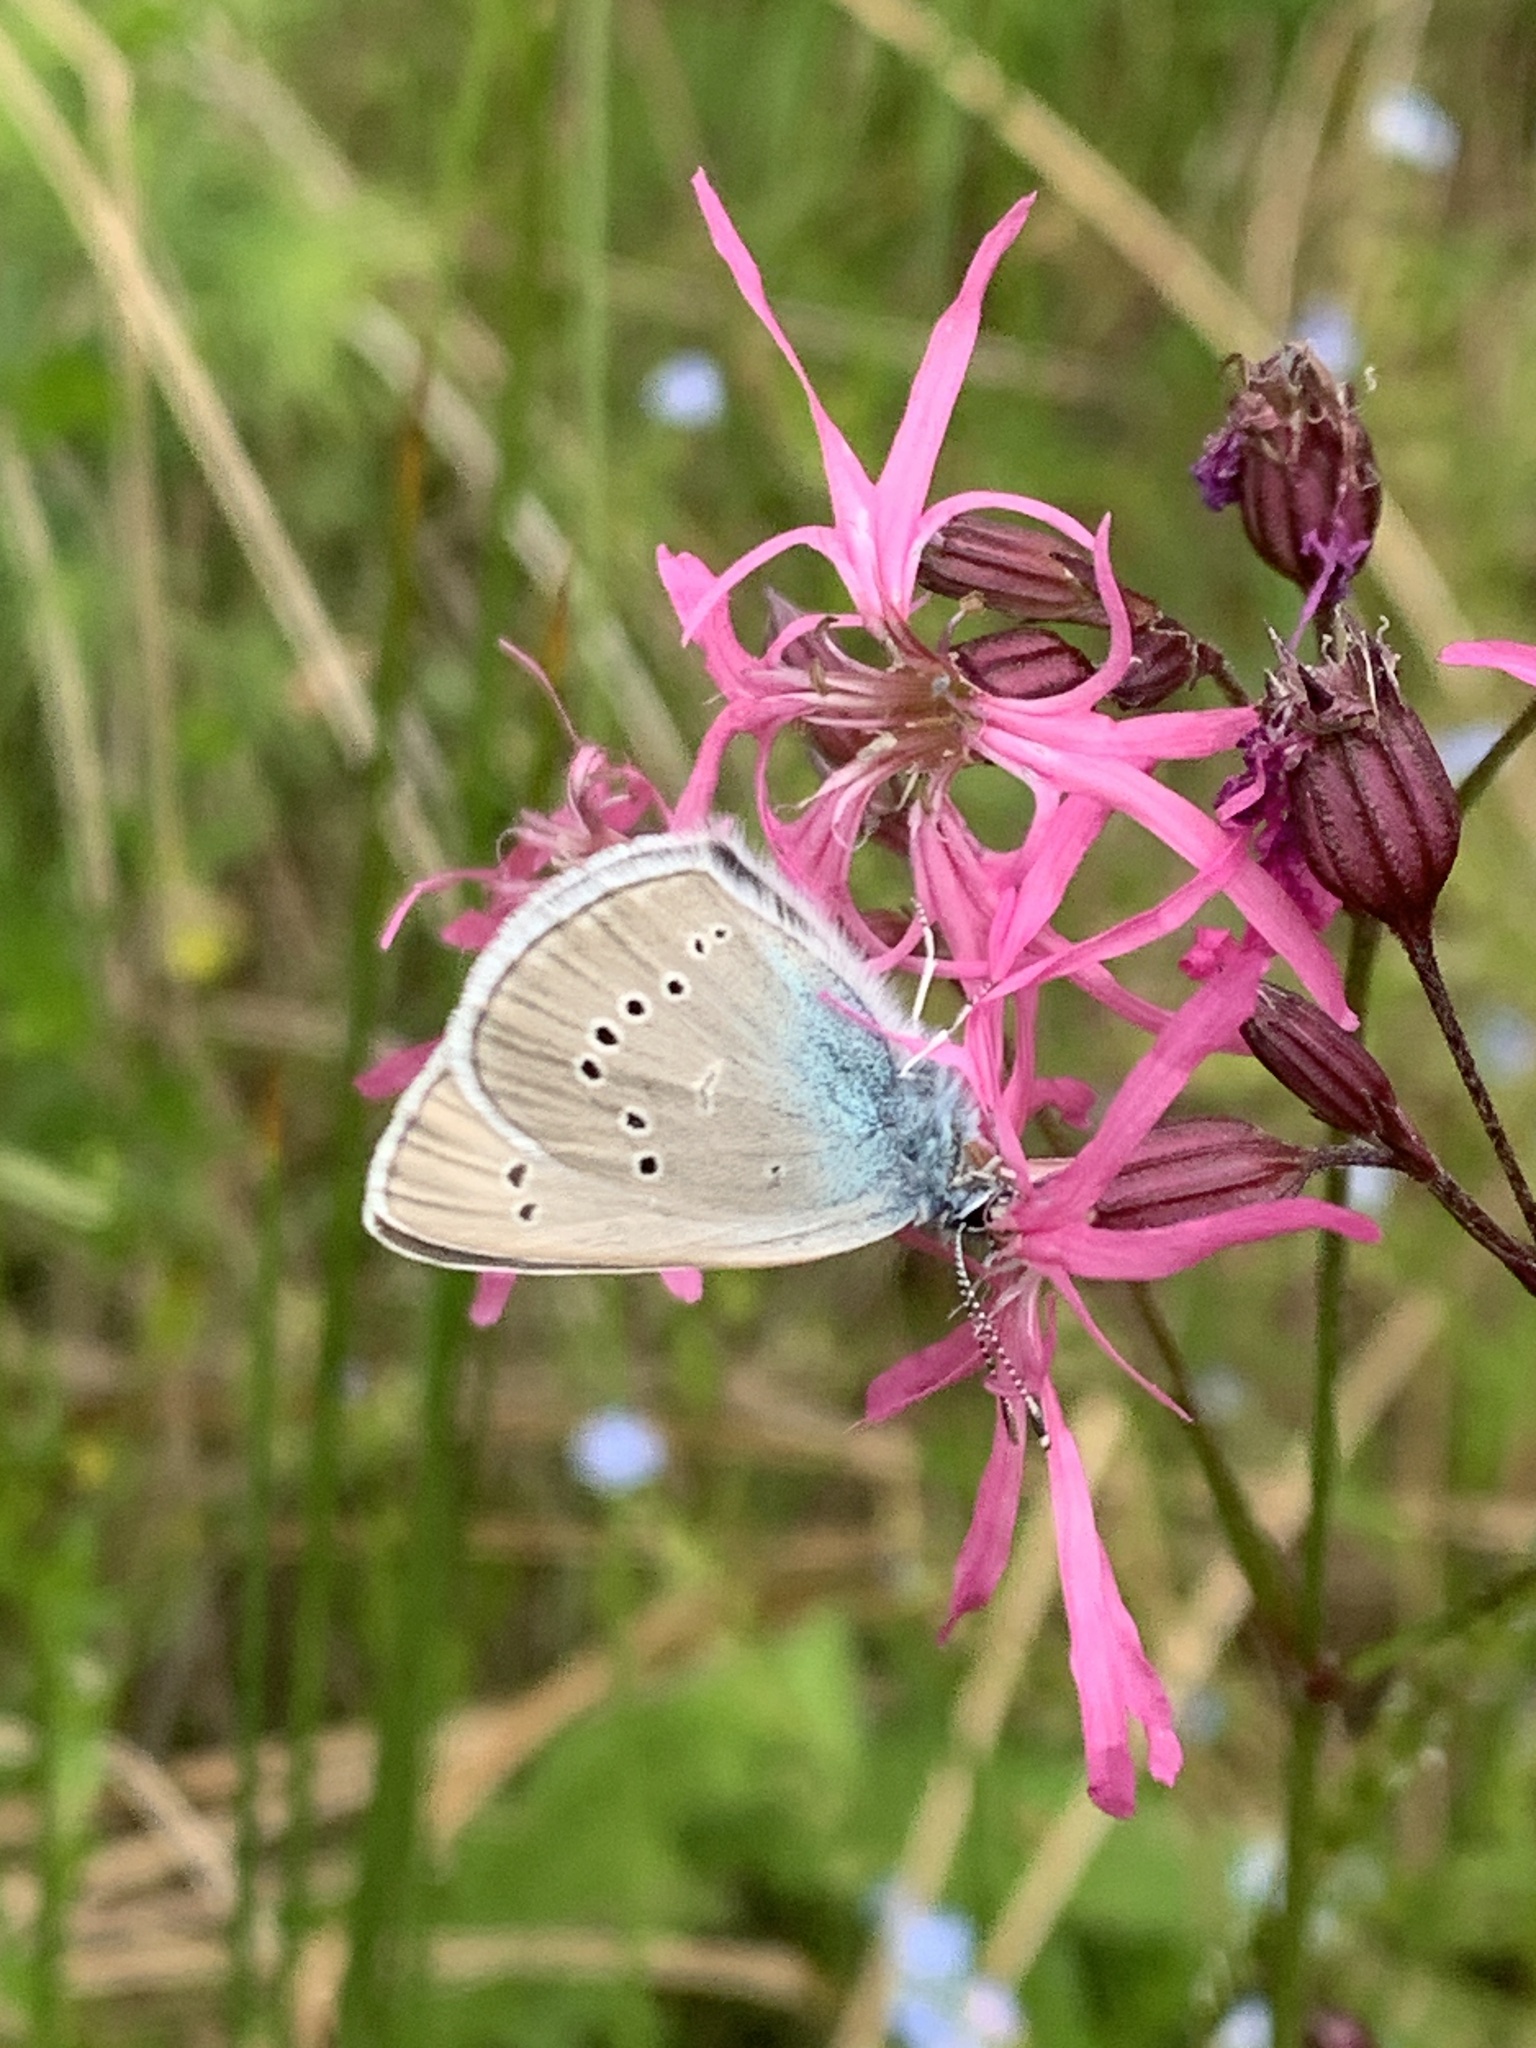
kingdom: Animalia
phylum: Arthropoda
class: Insecta
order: Lepidoptera
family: Lycaenidae
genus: Cyaniris
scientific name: Cyaniris semiargus
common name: Mazarine blue
